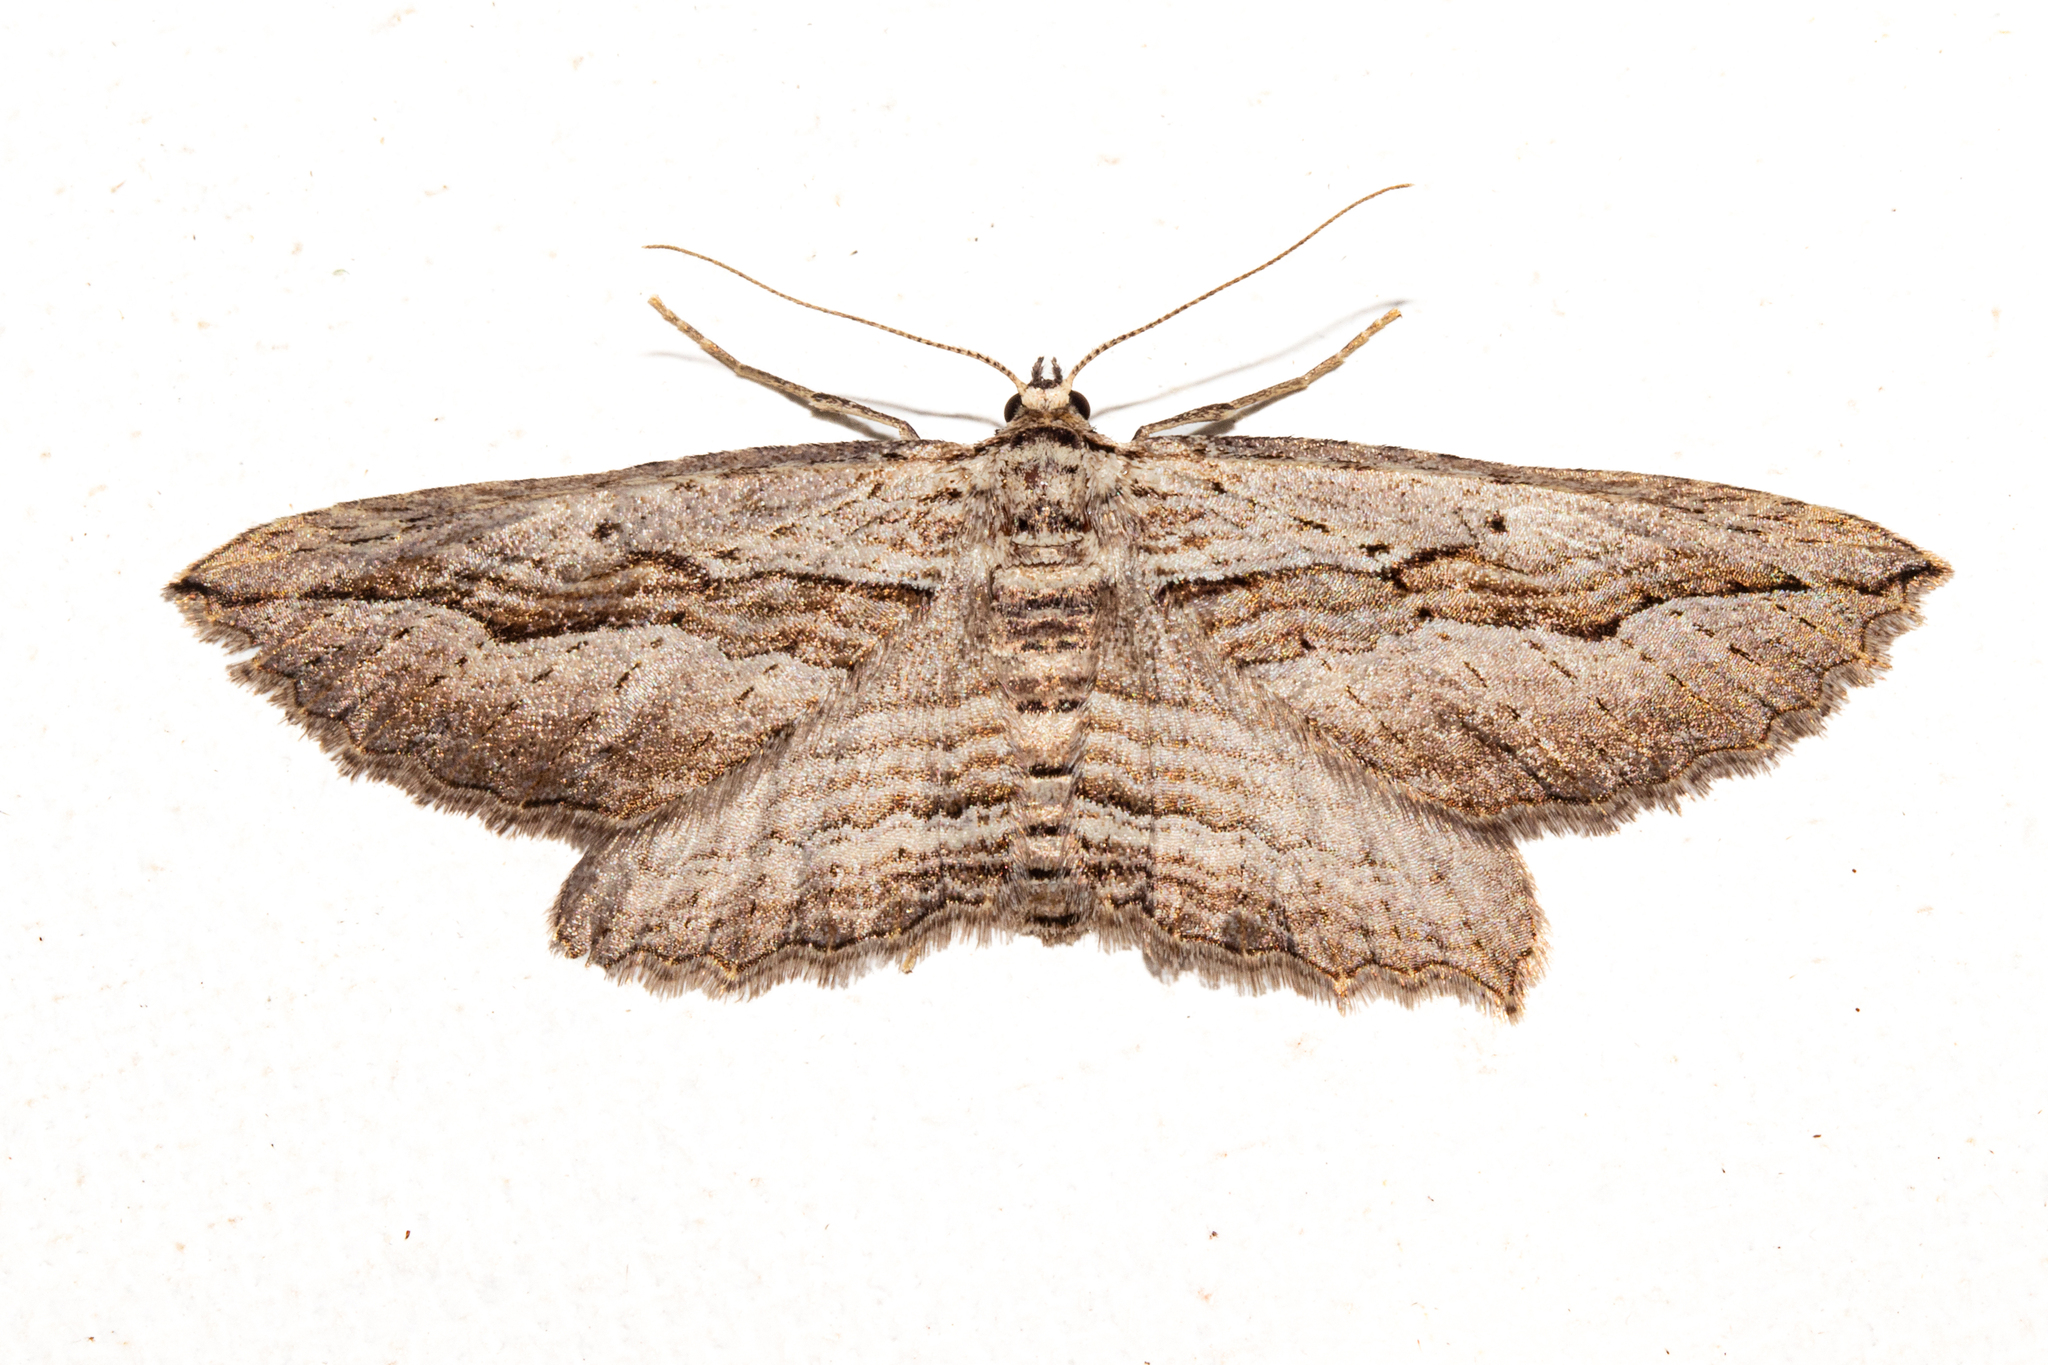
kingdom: Animalia
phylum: Arthropoda
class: Insecta
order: Lepidoptera
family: Geometridae
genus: Aponotoreas
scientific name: Aponotoreas dissimilis
